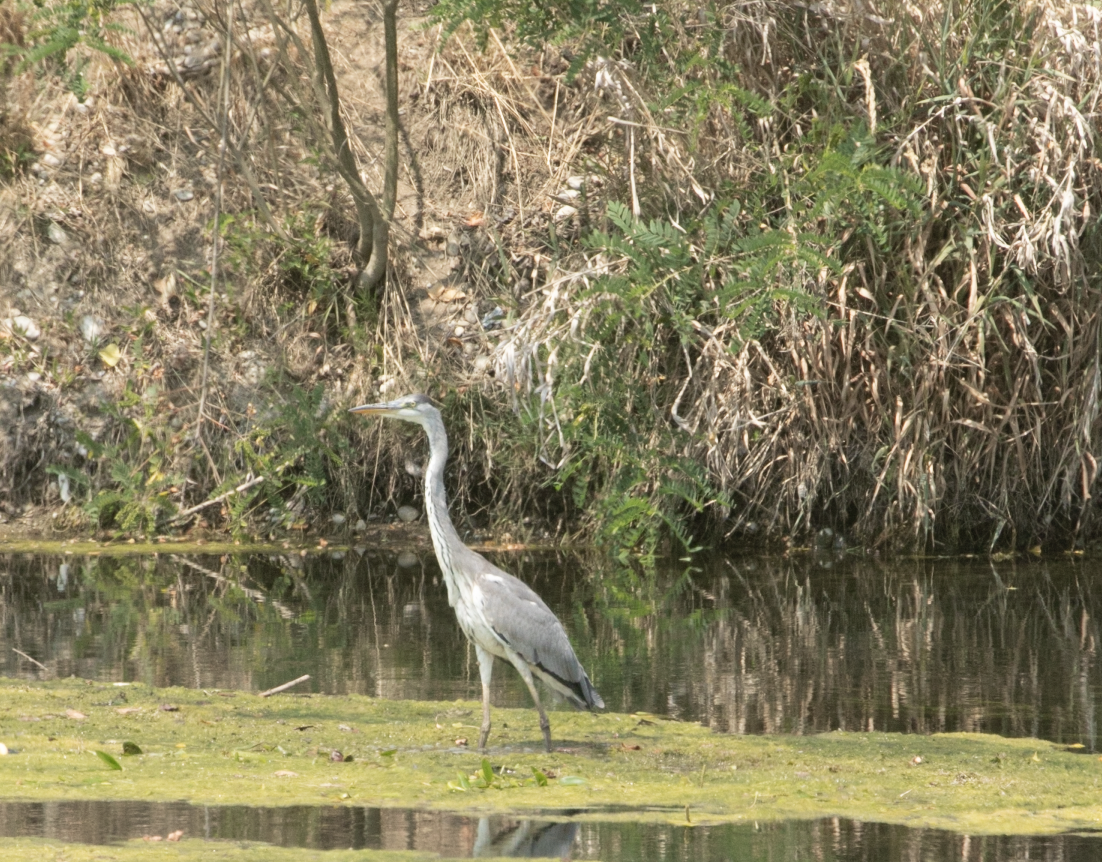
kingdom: Animalia
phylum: Chordata
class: Aves
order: Pelecaniformes
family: Ardeidae
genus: Ardea
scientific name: Ardea cinerea
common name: Grey heron
